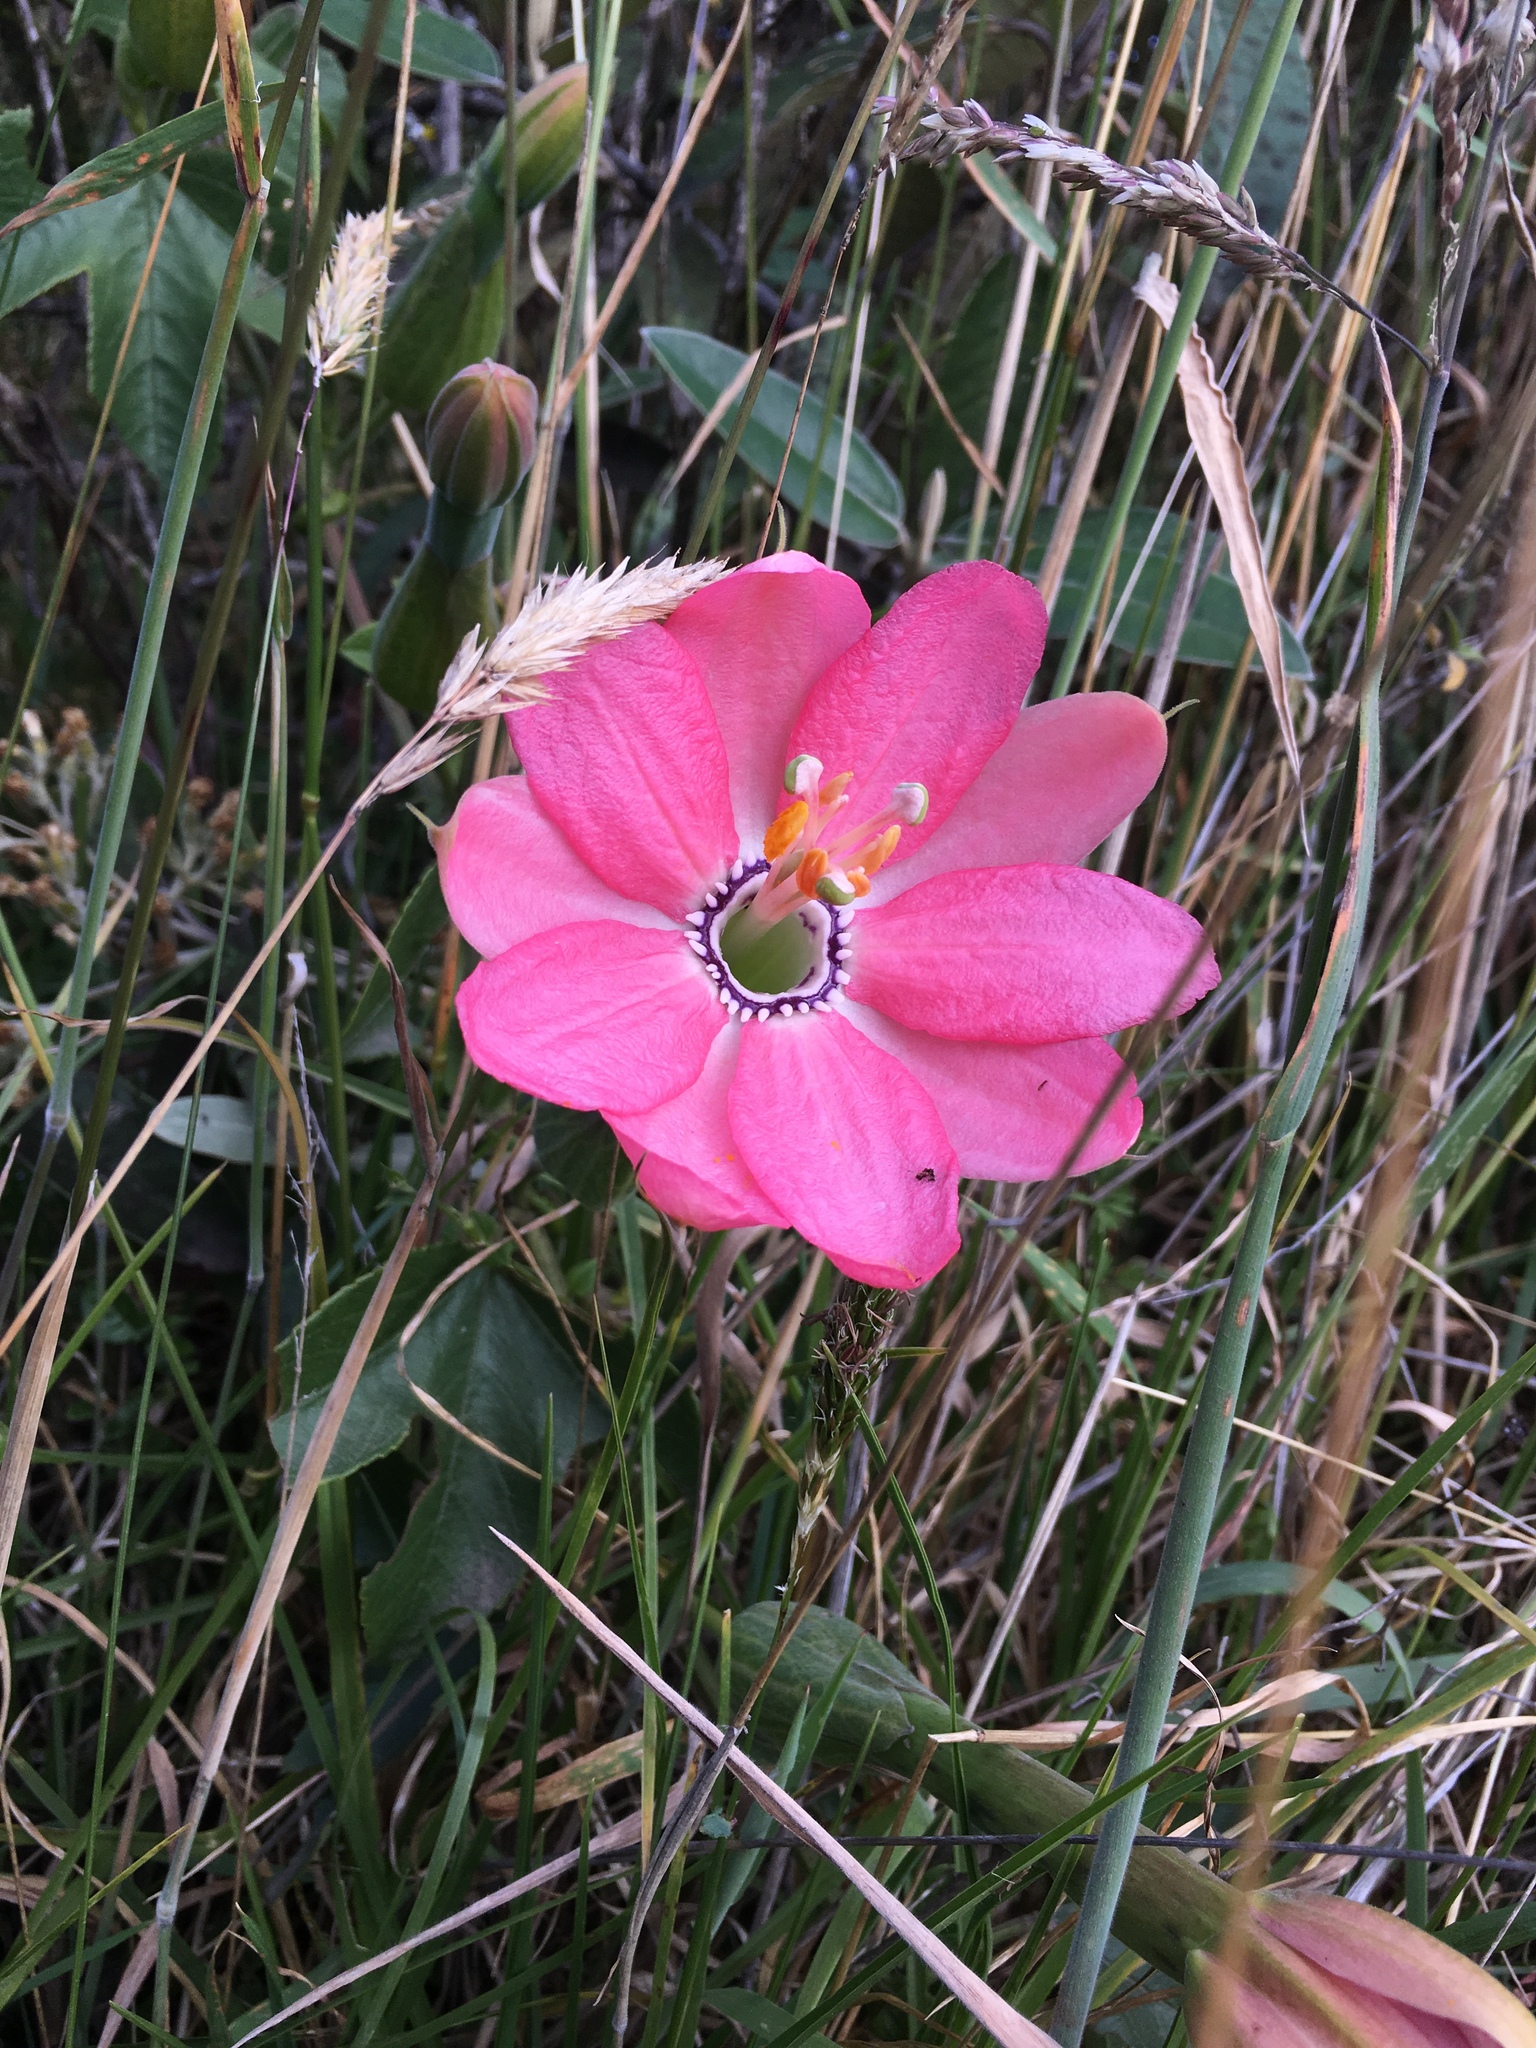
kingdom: Plantae
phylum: Tracheophyta
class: Magnoliopsida
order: Malpighiales
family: Passifloraceae
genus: Passiflora
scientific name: Passiflora mixta
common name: Passion flower
